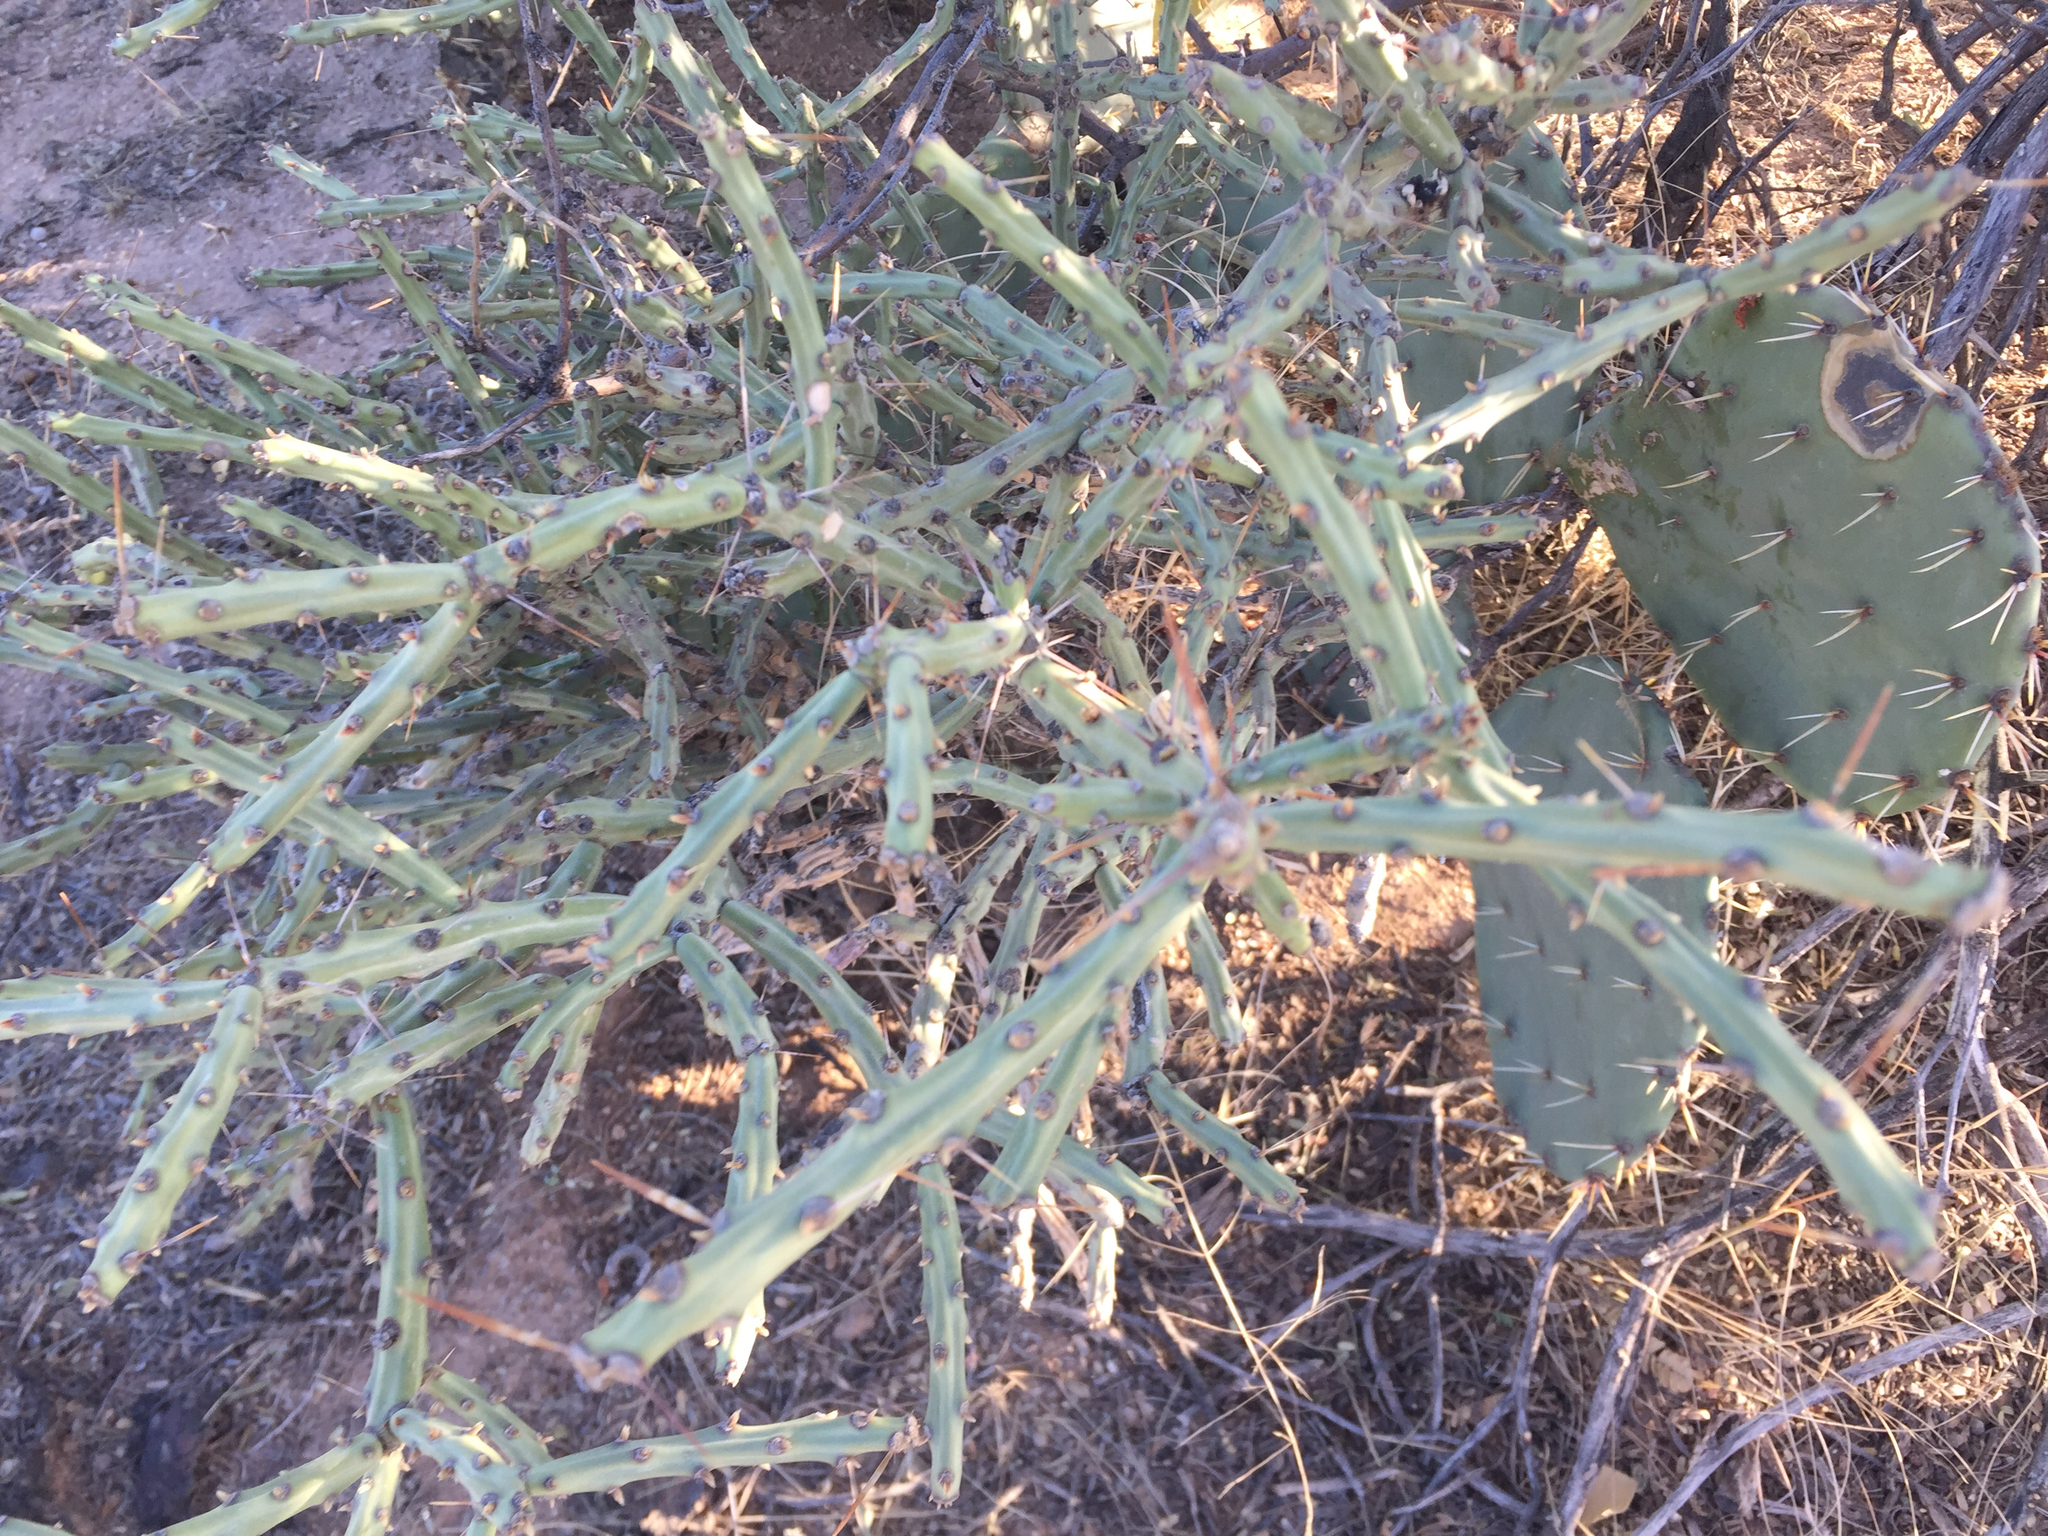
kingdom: Plantae
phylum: Tracheophyta
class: Magnoliopsida
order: Caryophyllales
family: Cactaceae
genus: Cylindropuntia
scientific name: Cylindropuntia neoarbuscula
